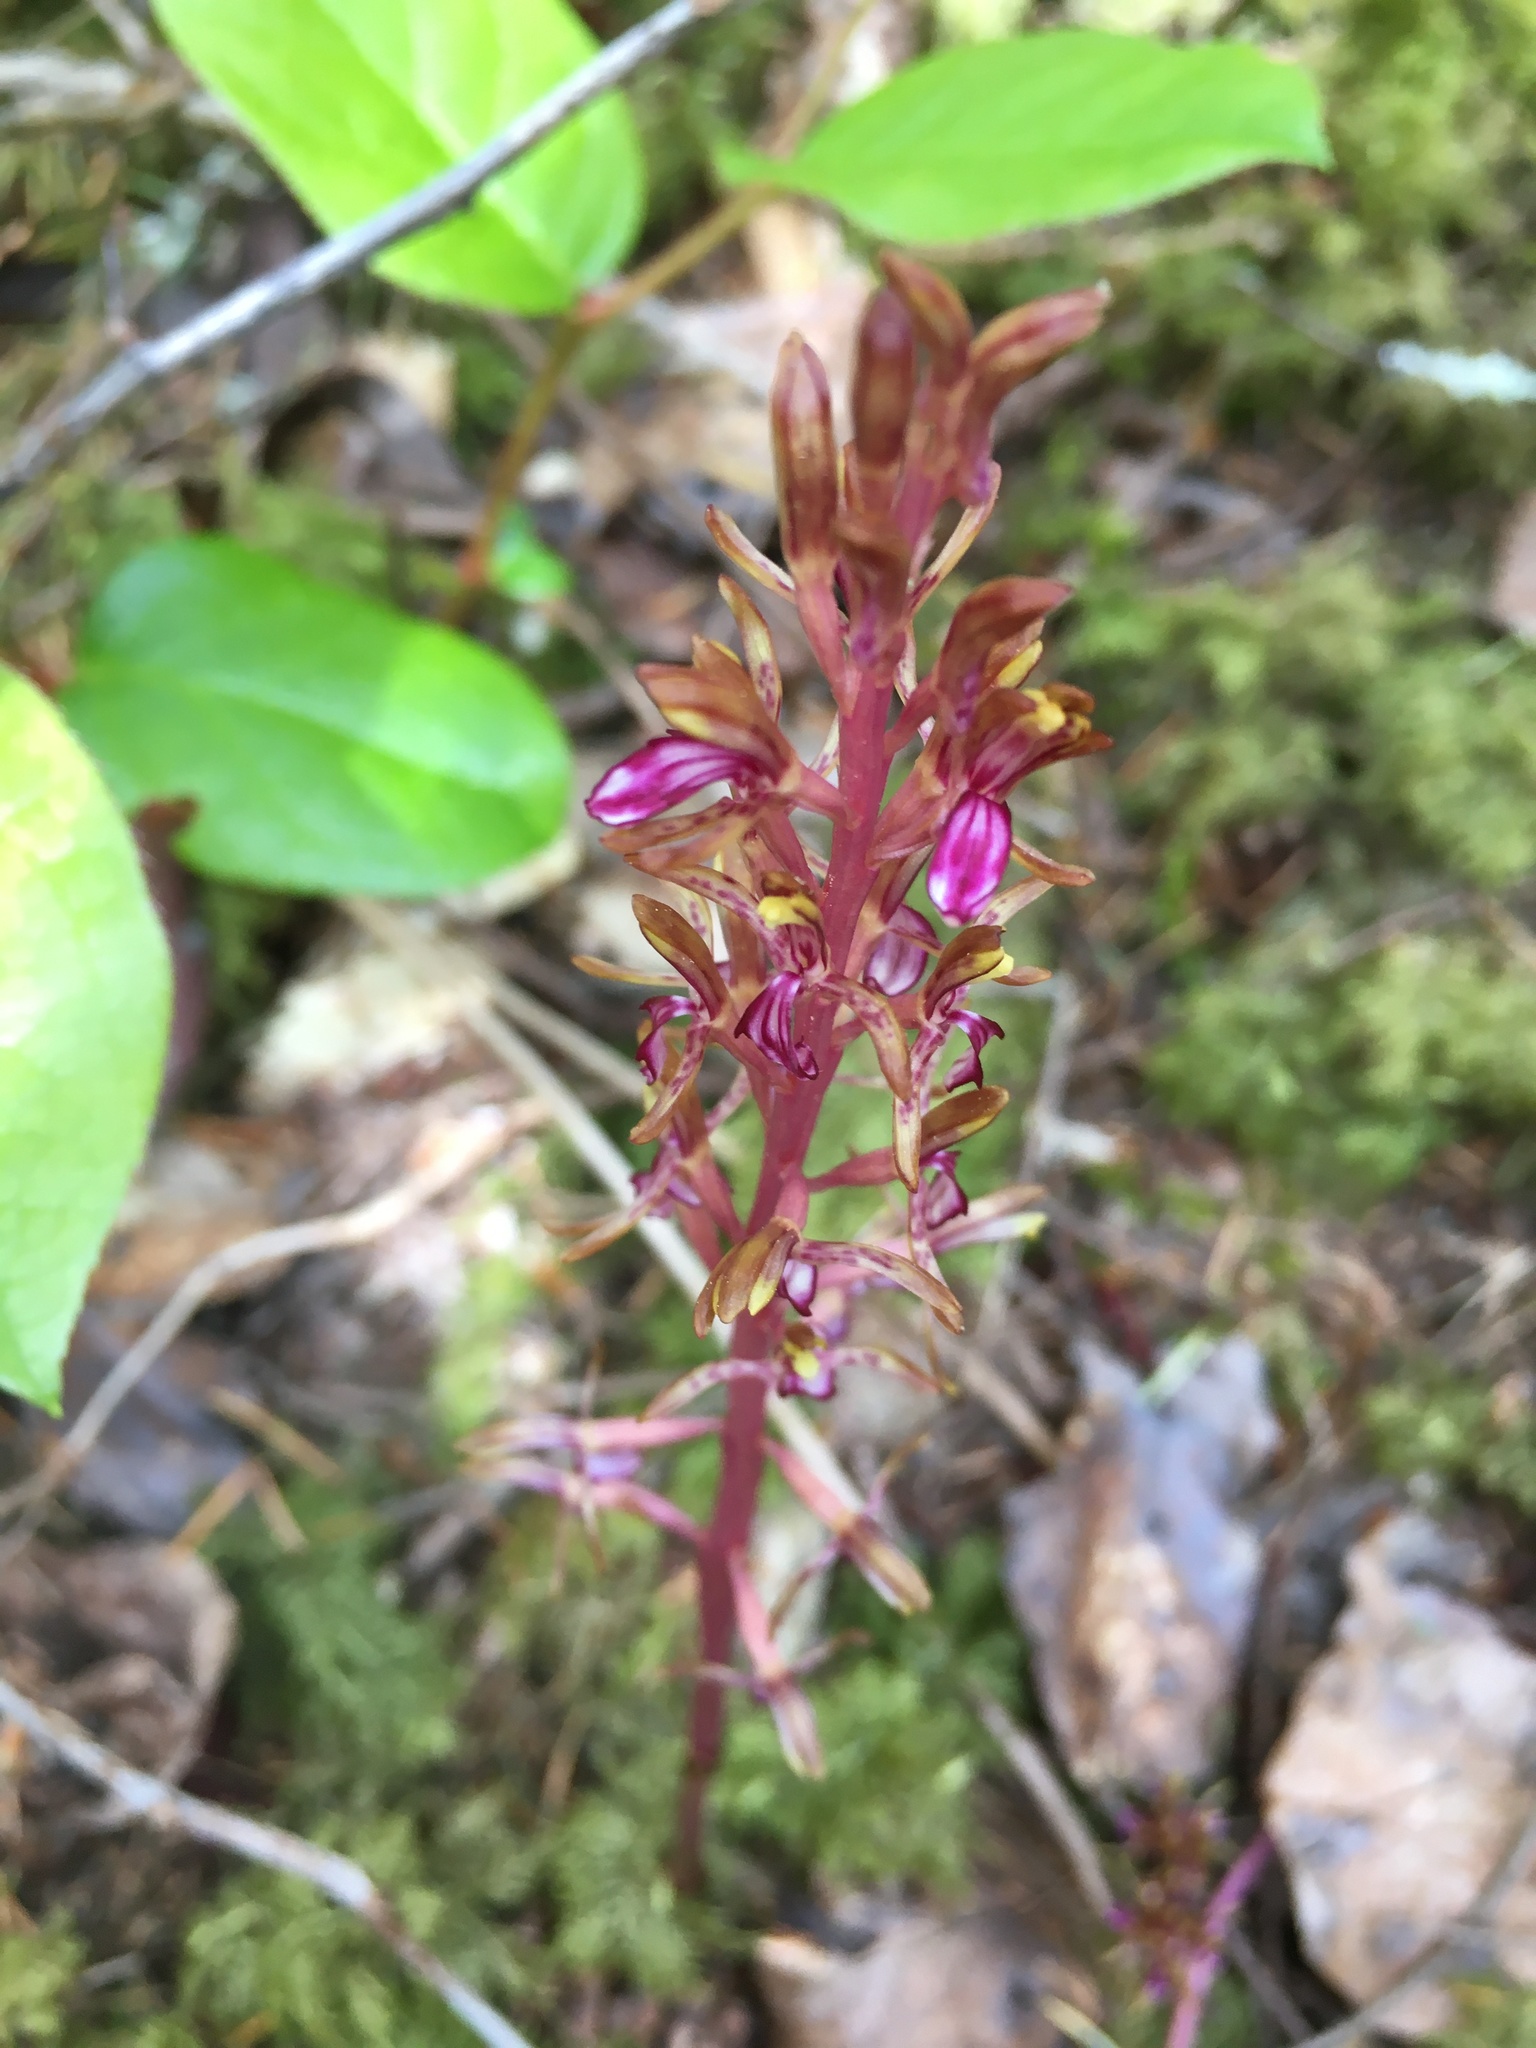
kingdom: Plantae
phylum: Tracheophyta
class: Liliopsida
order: Asparagales
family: Orchidaceae
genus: Corallorhiza
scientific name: Corallorhiza mertensiana
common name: Pacific coralroot
